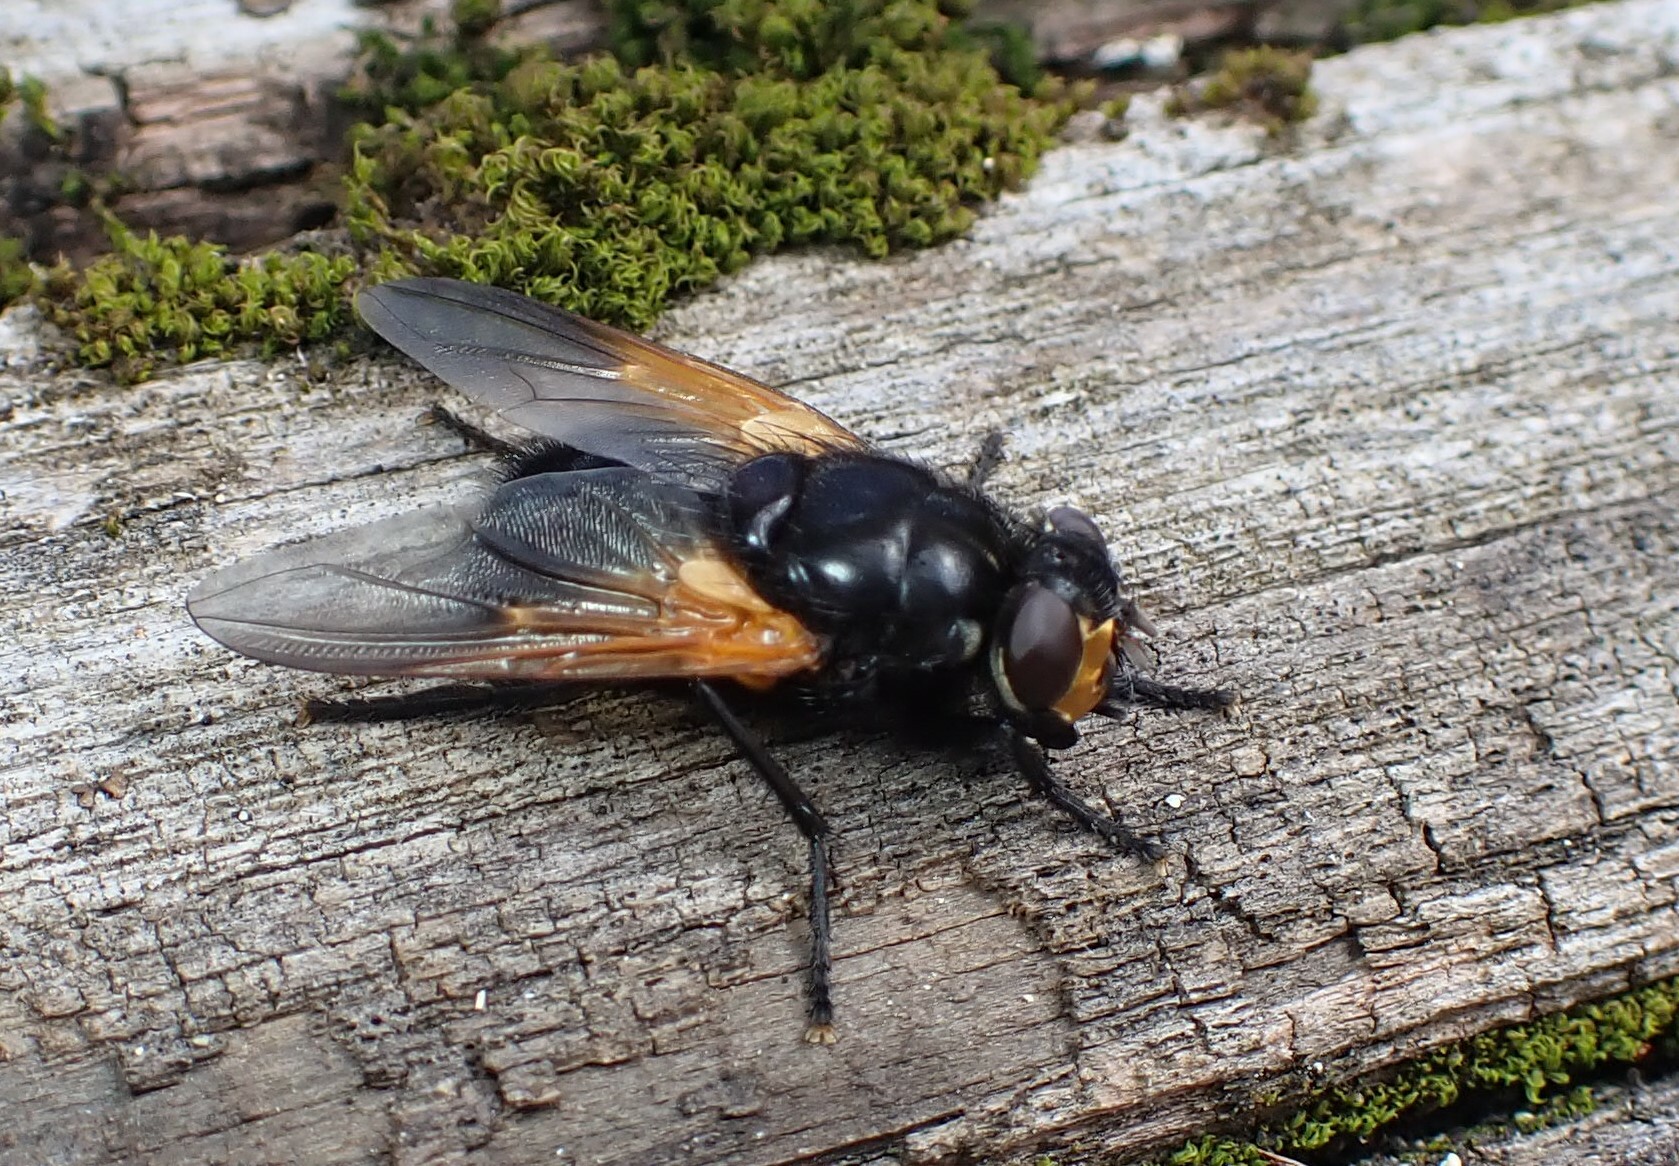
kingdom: Animalia
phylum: Arthropoda
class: Insecta
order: Diptera
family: Muscidae
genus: Mesembrina
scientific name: Mesembrina meridiana
